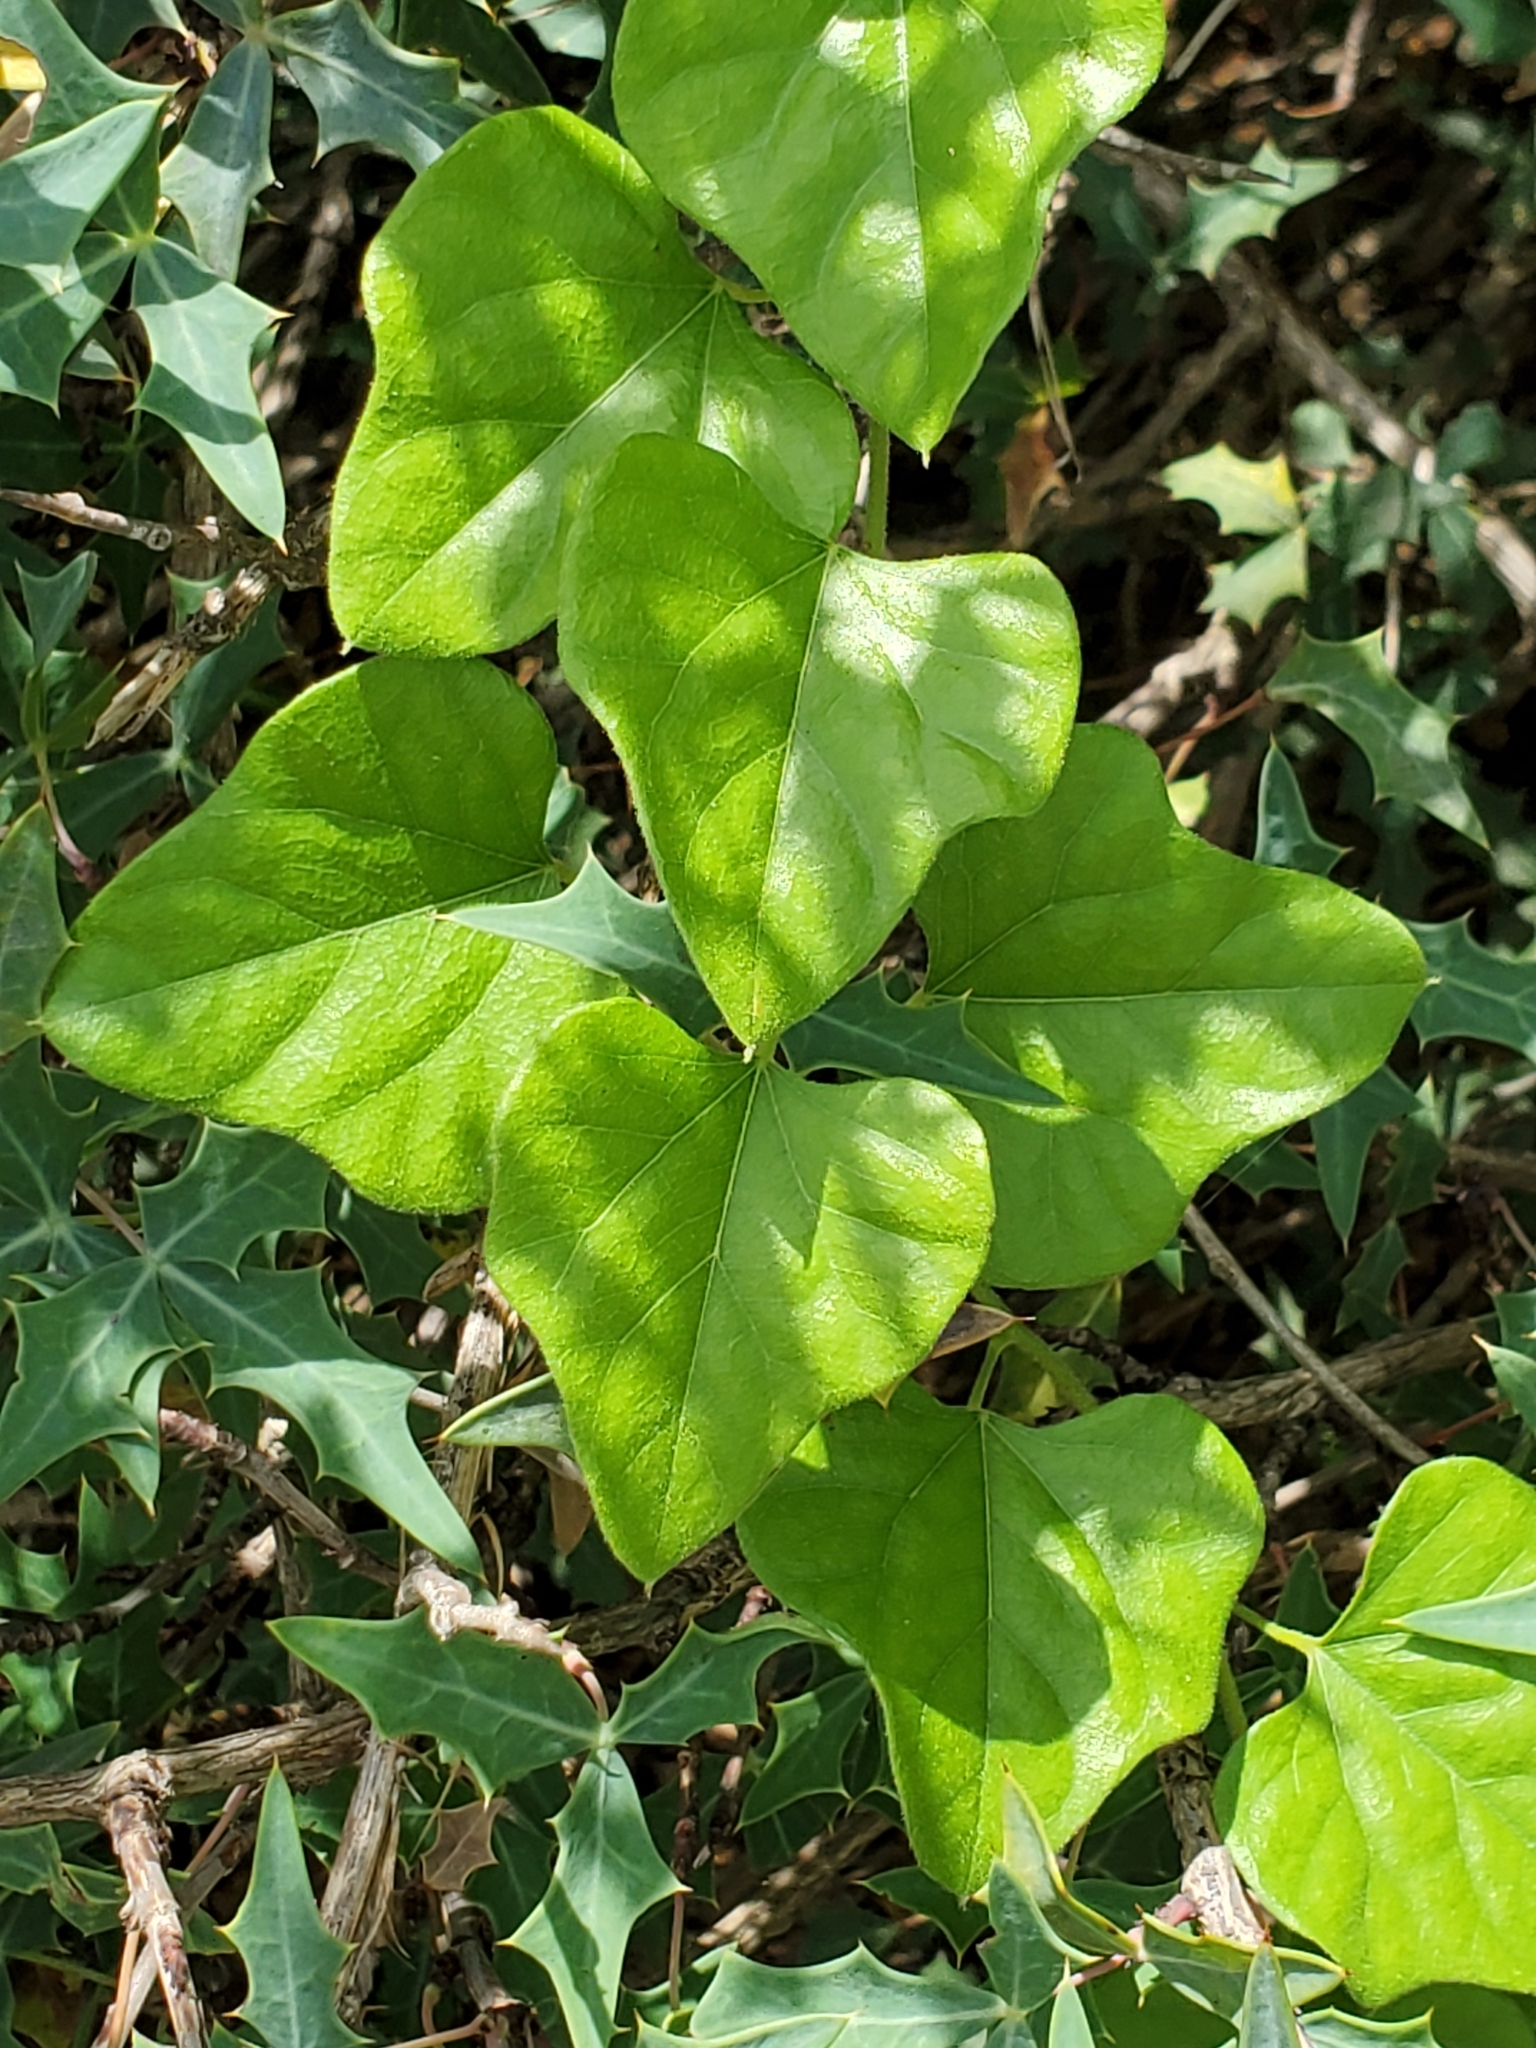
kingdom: Plantae
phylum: Tracheophyta
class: Magnoliopsida
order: Ranunculales
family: Menispermaceae
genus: Cocculus
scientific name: Cocculus carolinus
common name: Carolina moonseed
